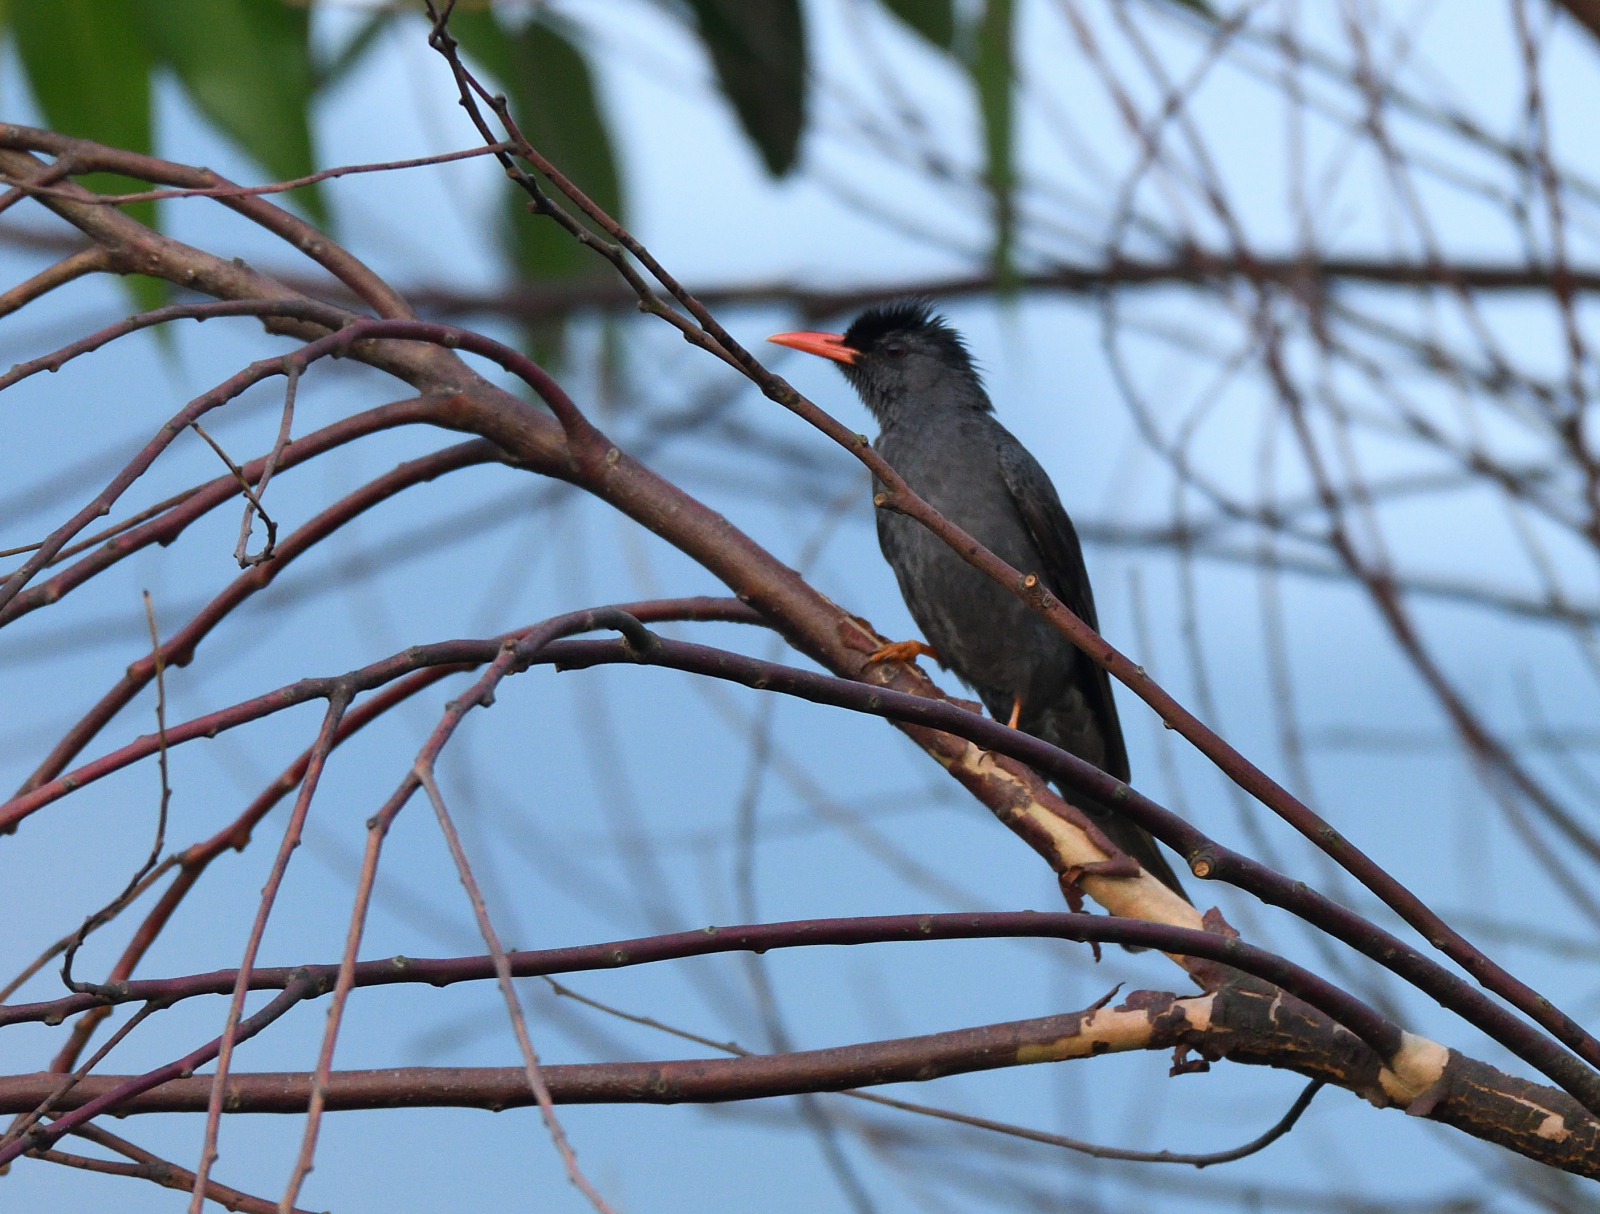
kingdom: Animalia
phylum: Chordata
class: Aves
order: Passeriformes
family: Pycnonotidae
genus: Hypsipetes
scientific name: Hypsipetes ganeesa
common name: Square-tailed bulbul
